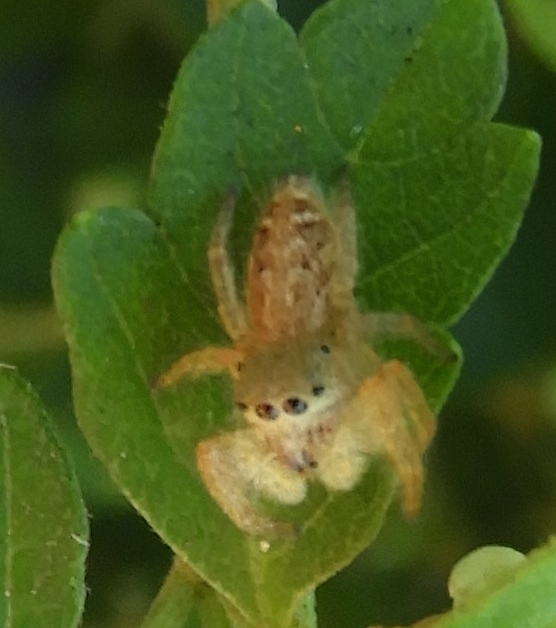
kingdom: Animalia
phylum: Arthropoda
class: Arachnida
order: Araneae
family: Salticidae
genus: Paraphidippus
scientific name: Paraphidippus fartilis
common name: Jumping spiders
